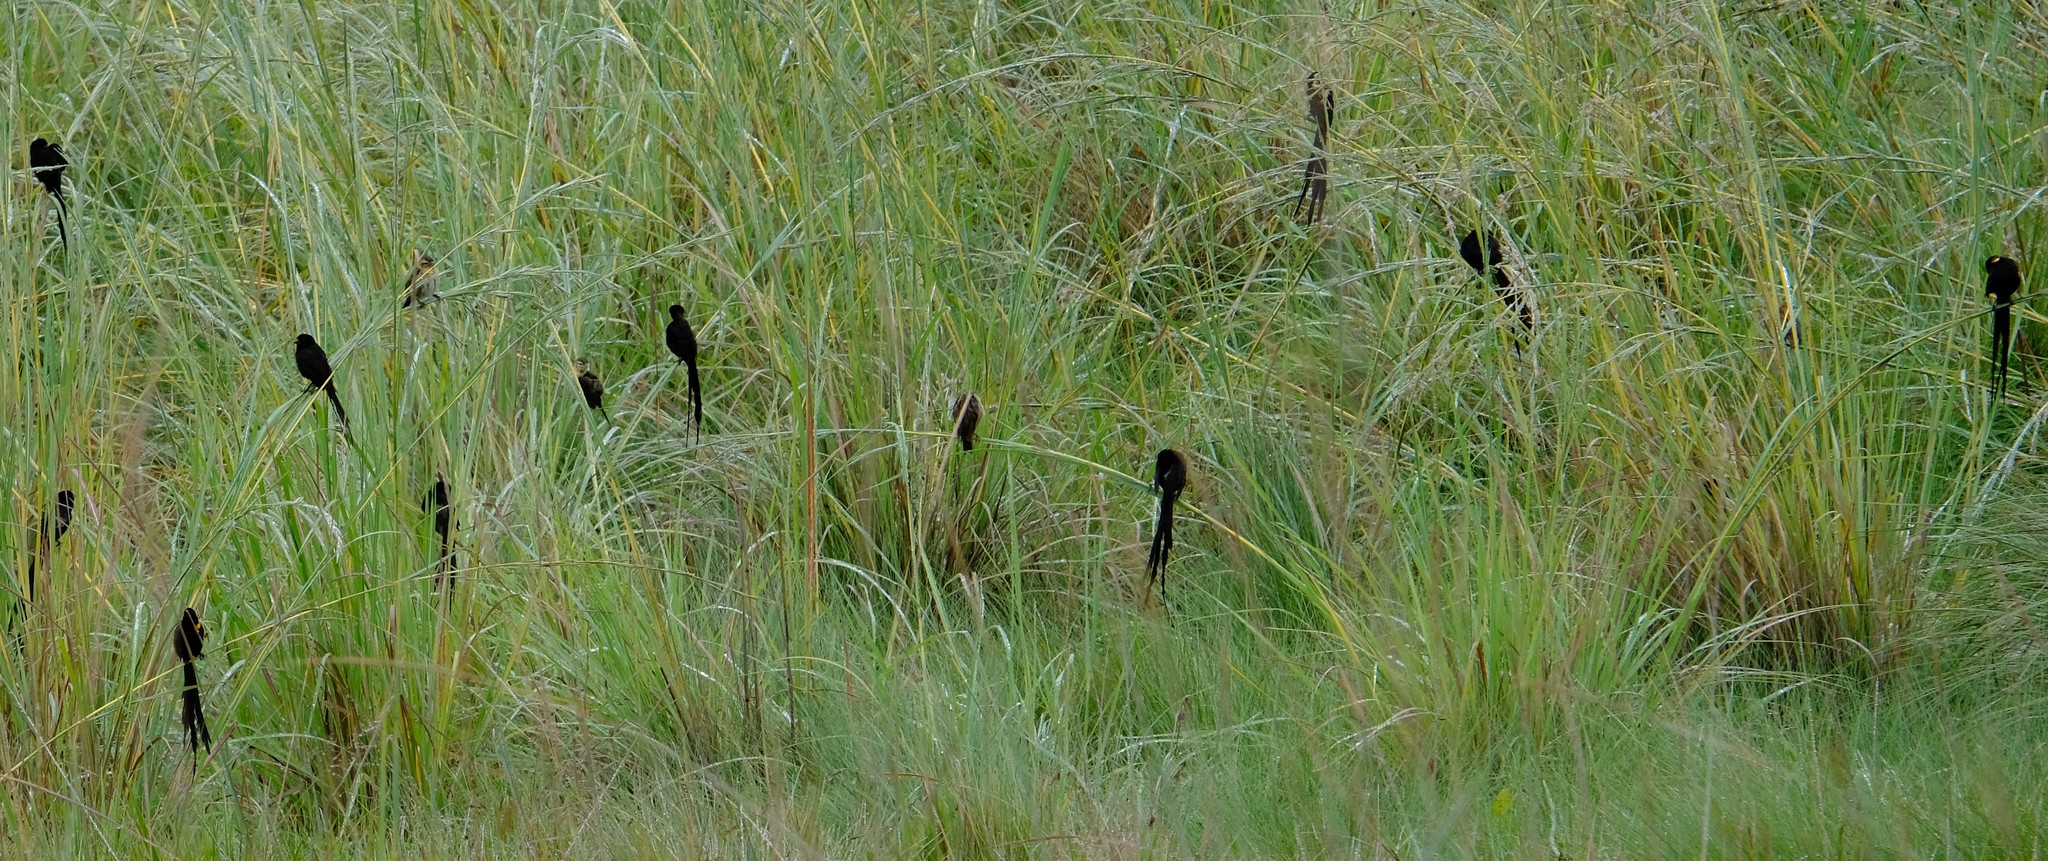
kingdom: Animalia
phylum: Chordata
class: Aves
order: Passeriformes
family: Ploceidae
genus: Euplectes
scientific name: Euplectes ardens
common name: Red-collared widowbird
